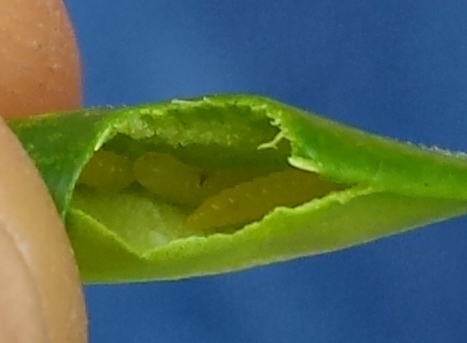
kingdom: Animalia
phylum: Arthropoda
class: Insecta
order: Diptera
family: Cecidomyiidae
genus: Monarthropalpus
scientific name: Monarthropalpus flavus
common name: Boxwood leafminer
